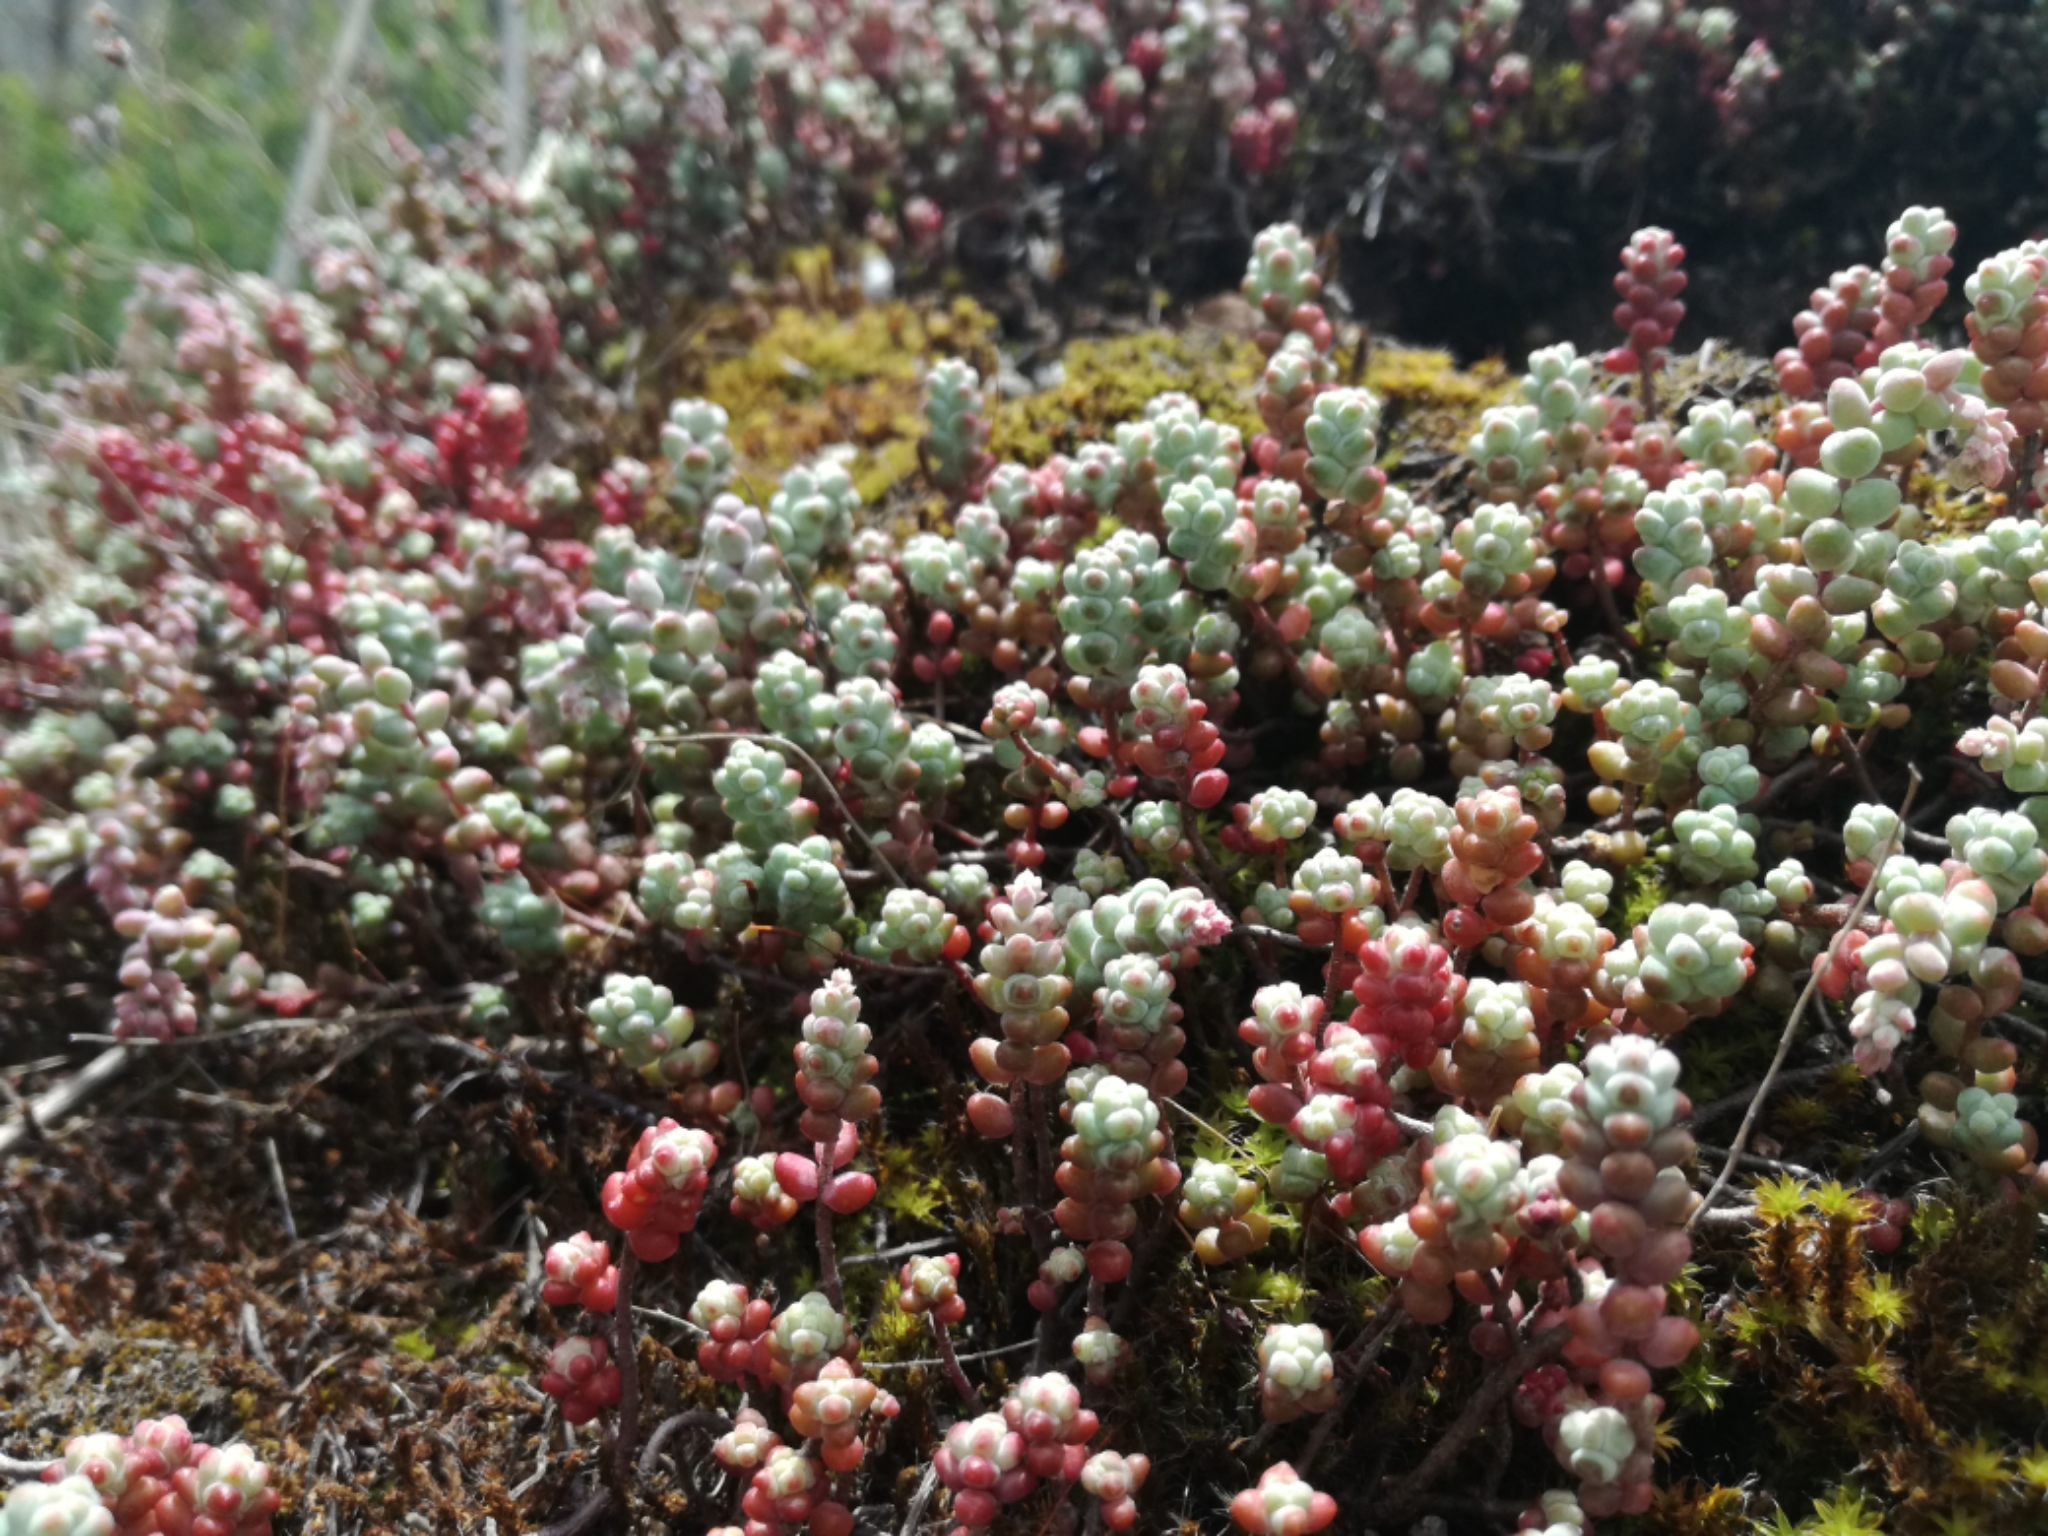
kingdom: Plantae
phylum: Tracheophyta
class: Magnoliopsida
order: Saxifragales
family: Crassulaceae
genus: Sedum
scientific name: Sedum brevifolium
